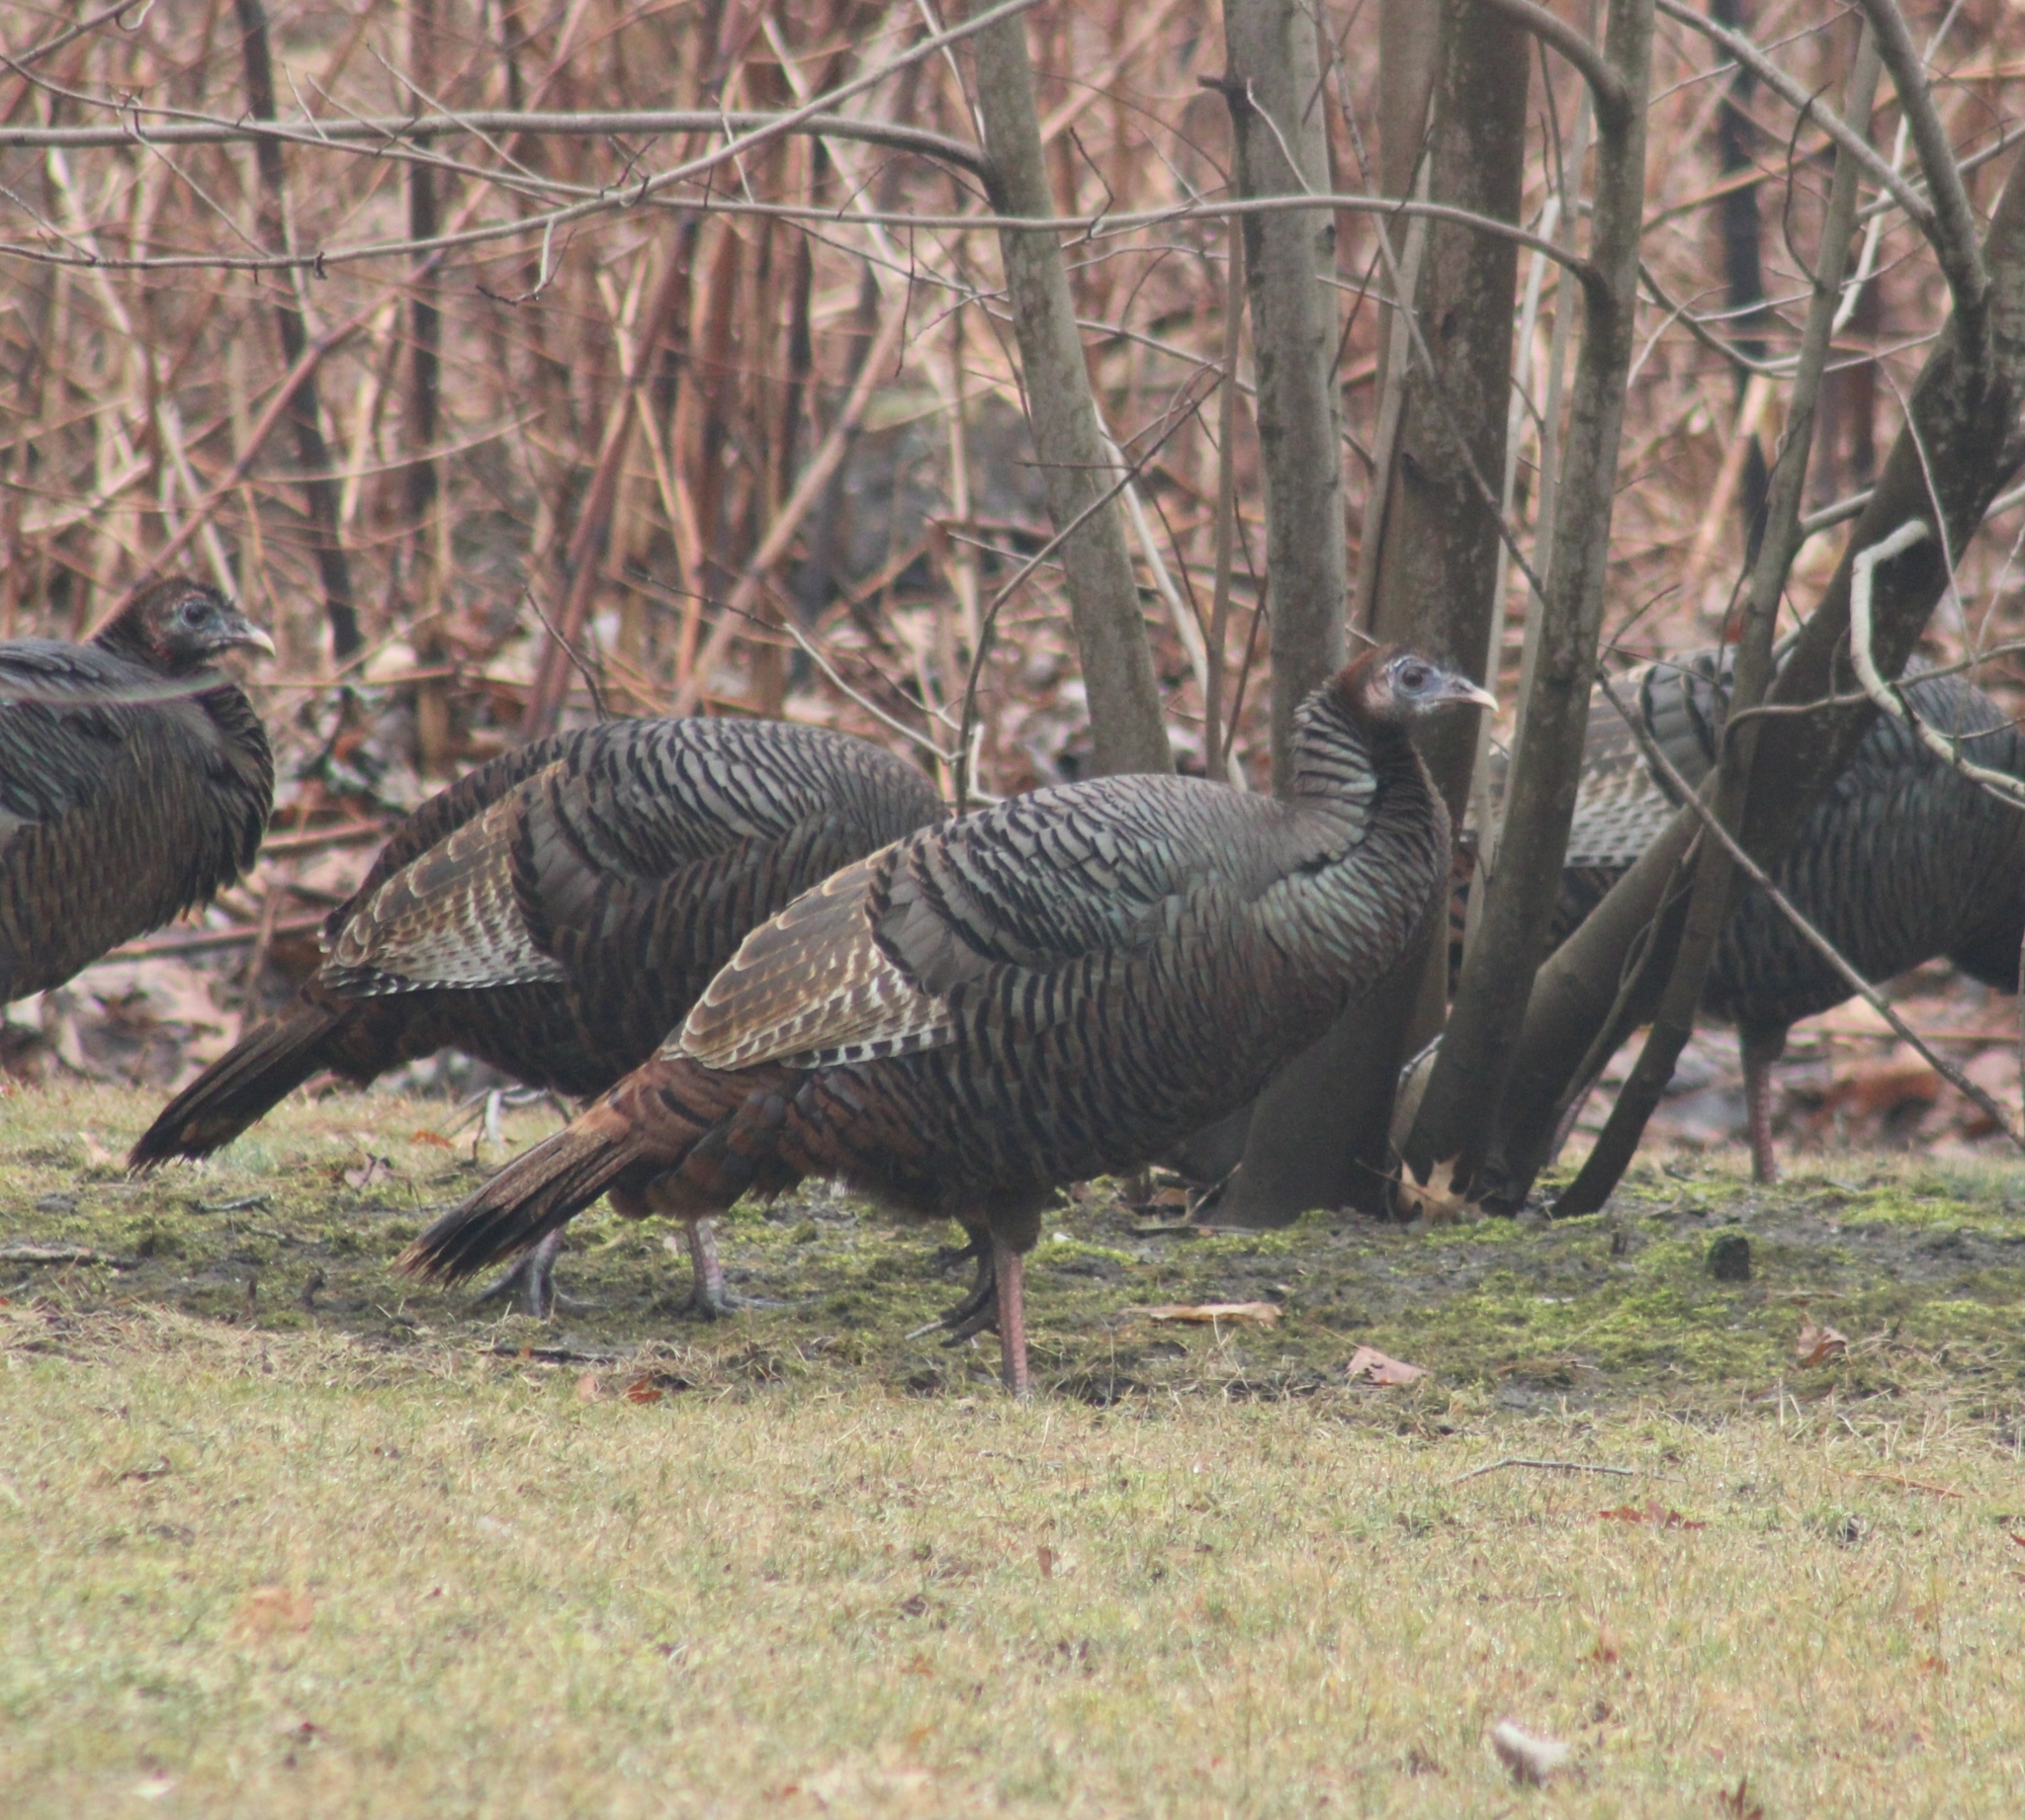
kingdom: Animalia
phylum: Chordata
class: Aves
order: Galliformes
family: Phasianidae
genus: Meleagris
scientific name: Meleagris gallopavo
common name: Wild turkey
